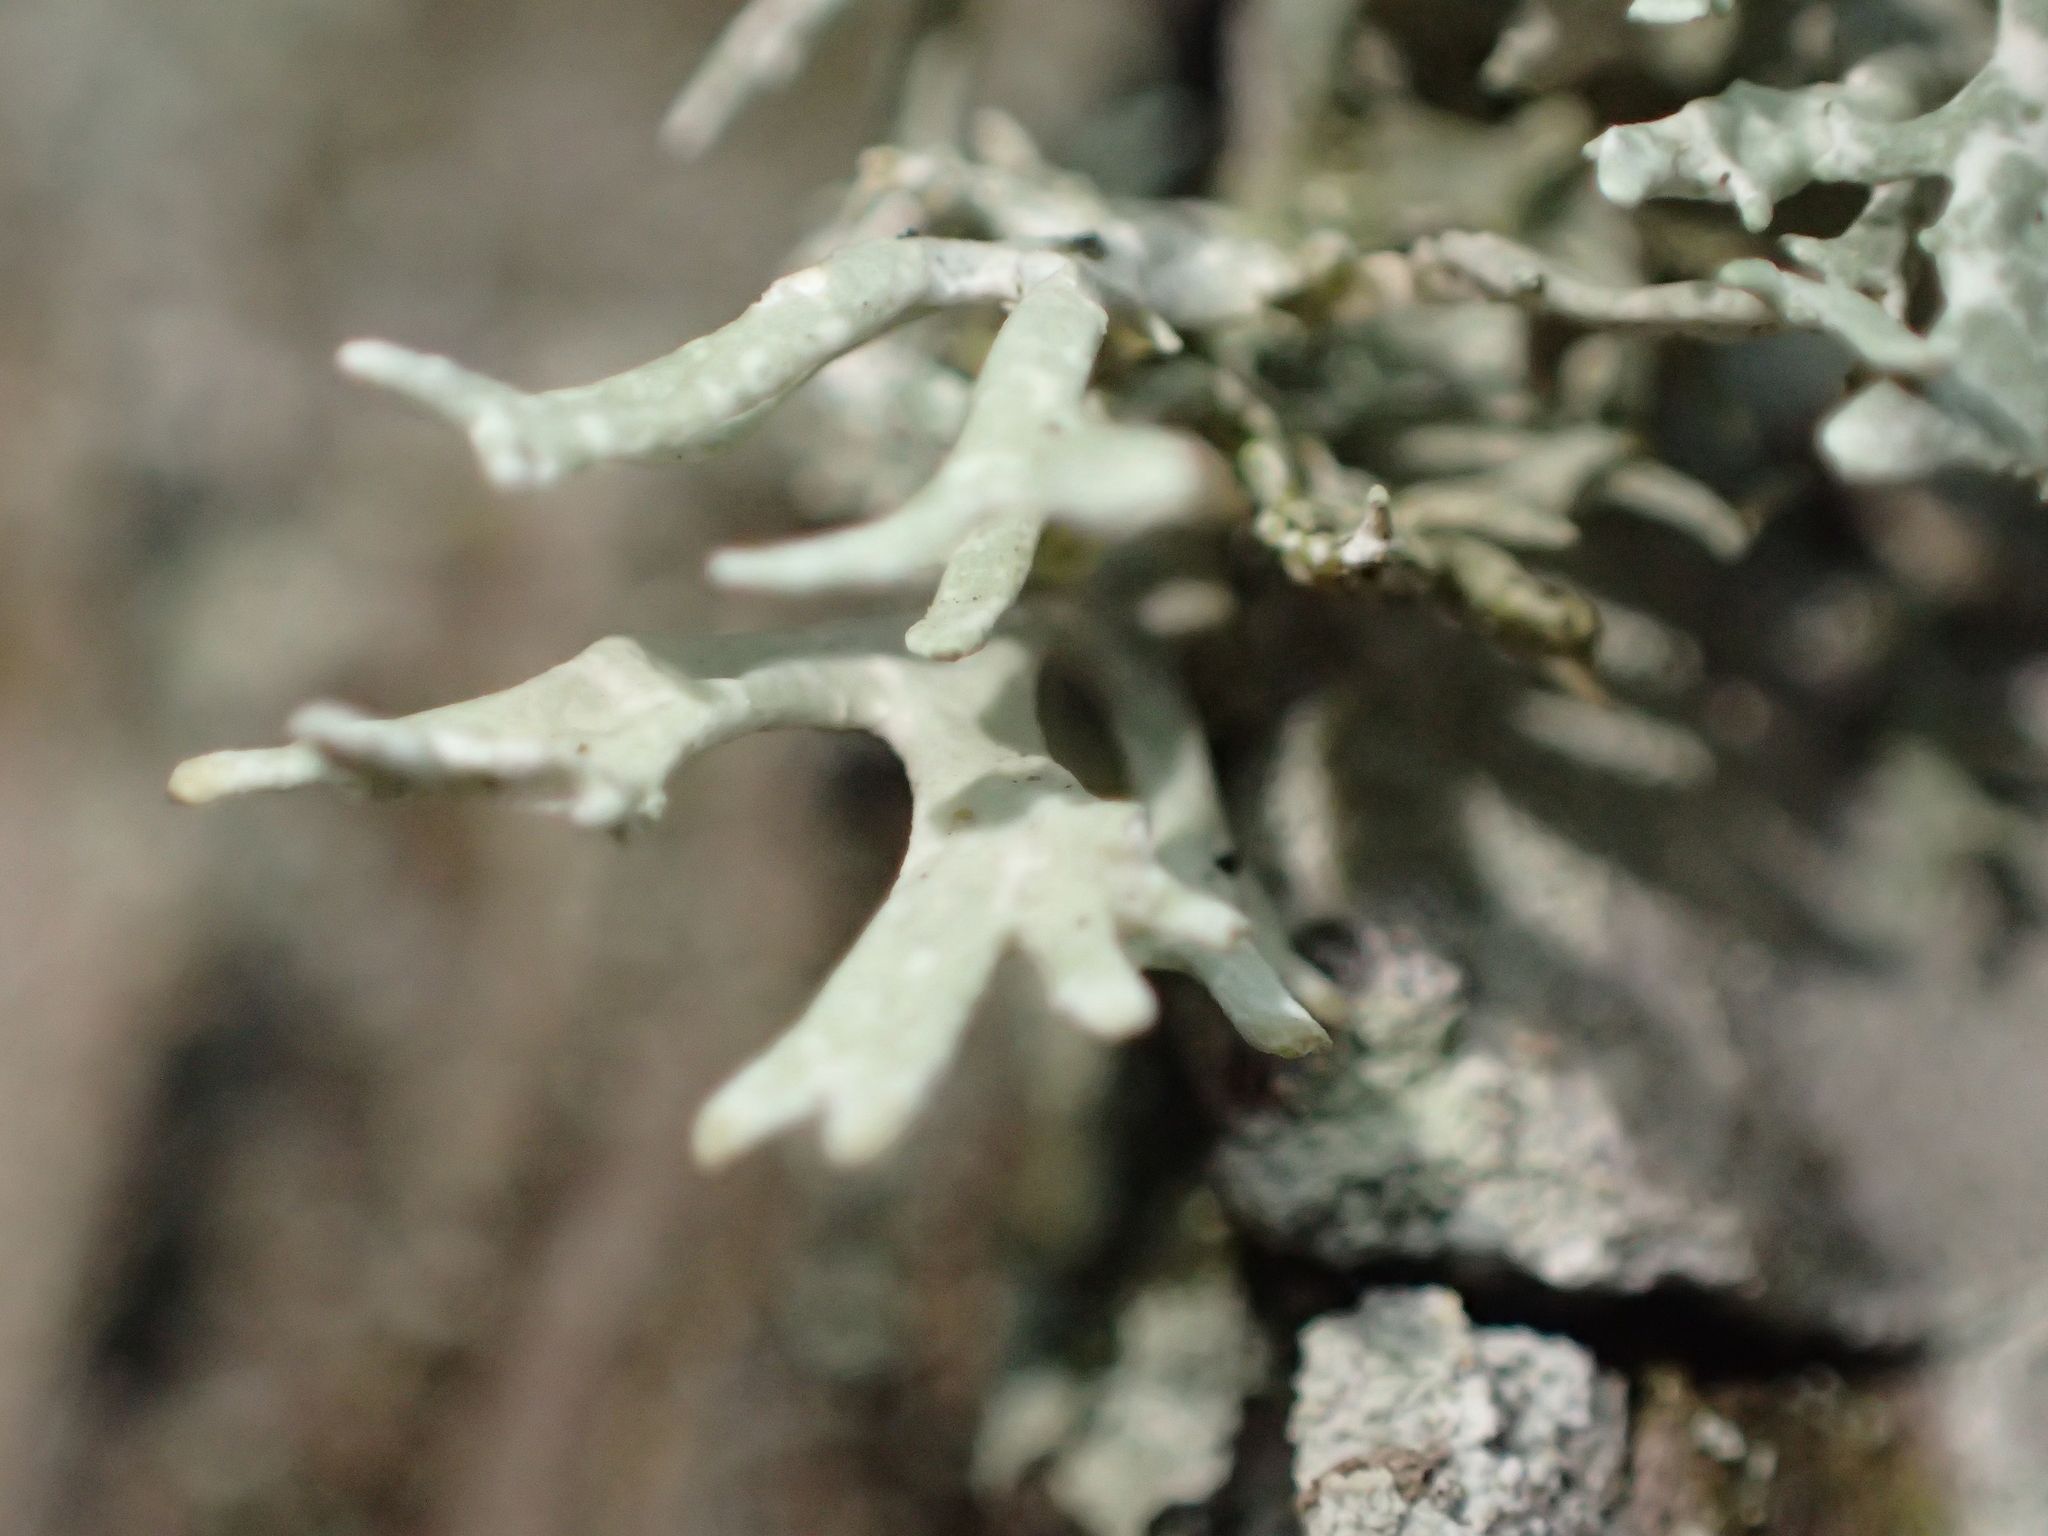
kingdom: Fungi
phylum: Ascomycota
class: Lecanoromycetes
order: Lecanorales
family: Parmeliaceae
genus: Evernia
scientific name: Evernia prunastri
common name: Oak moss
